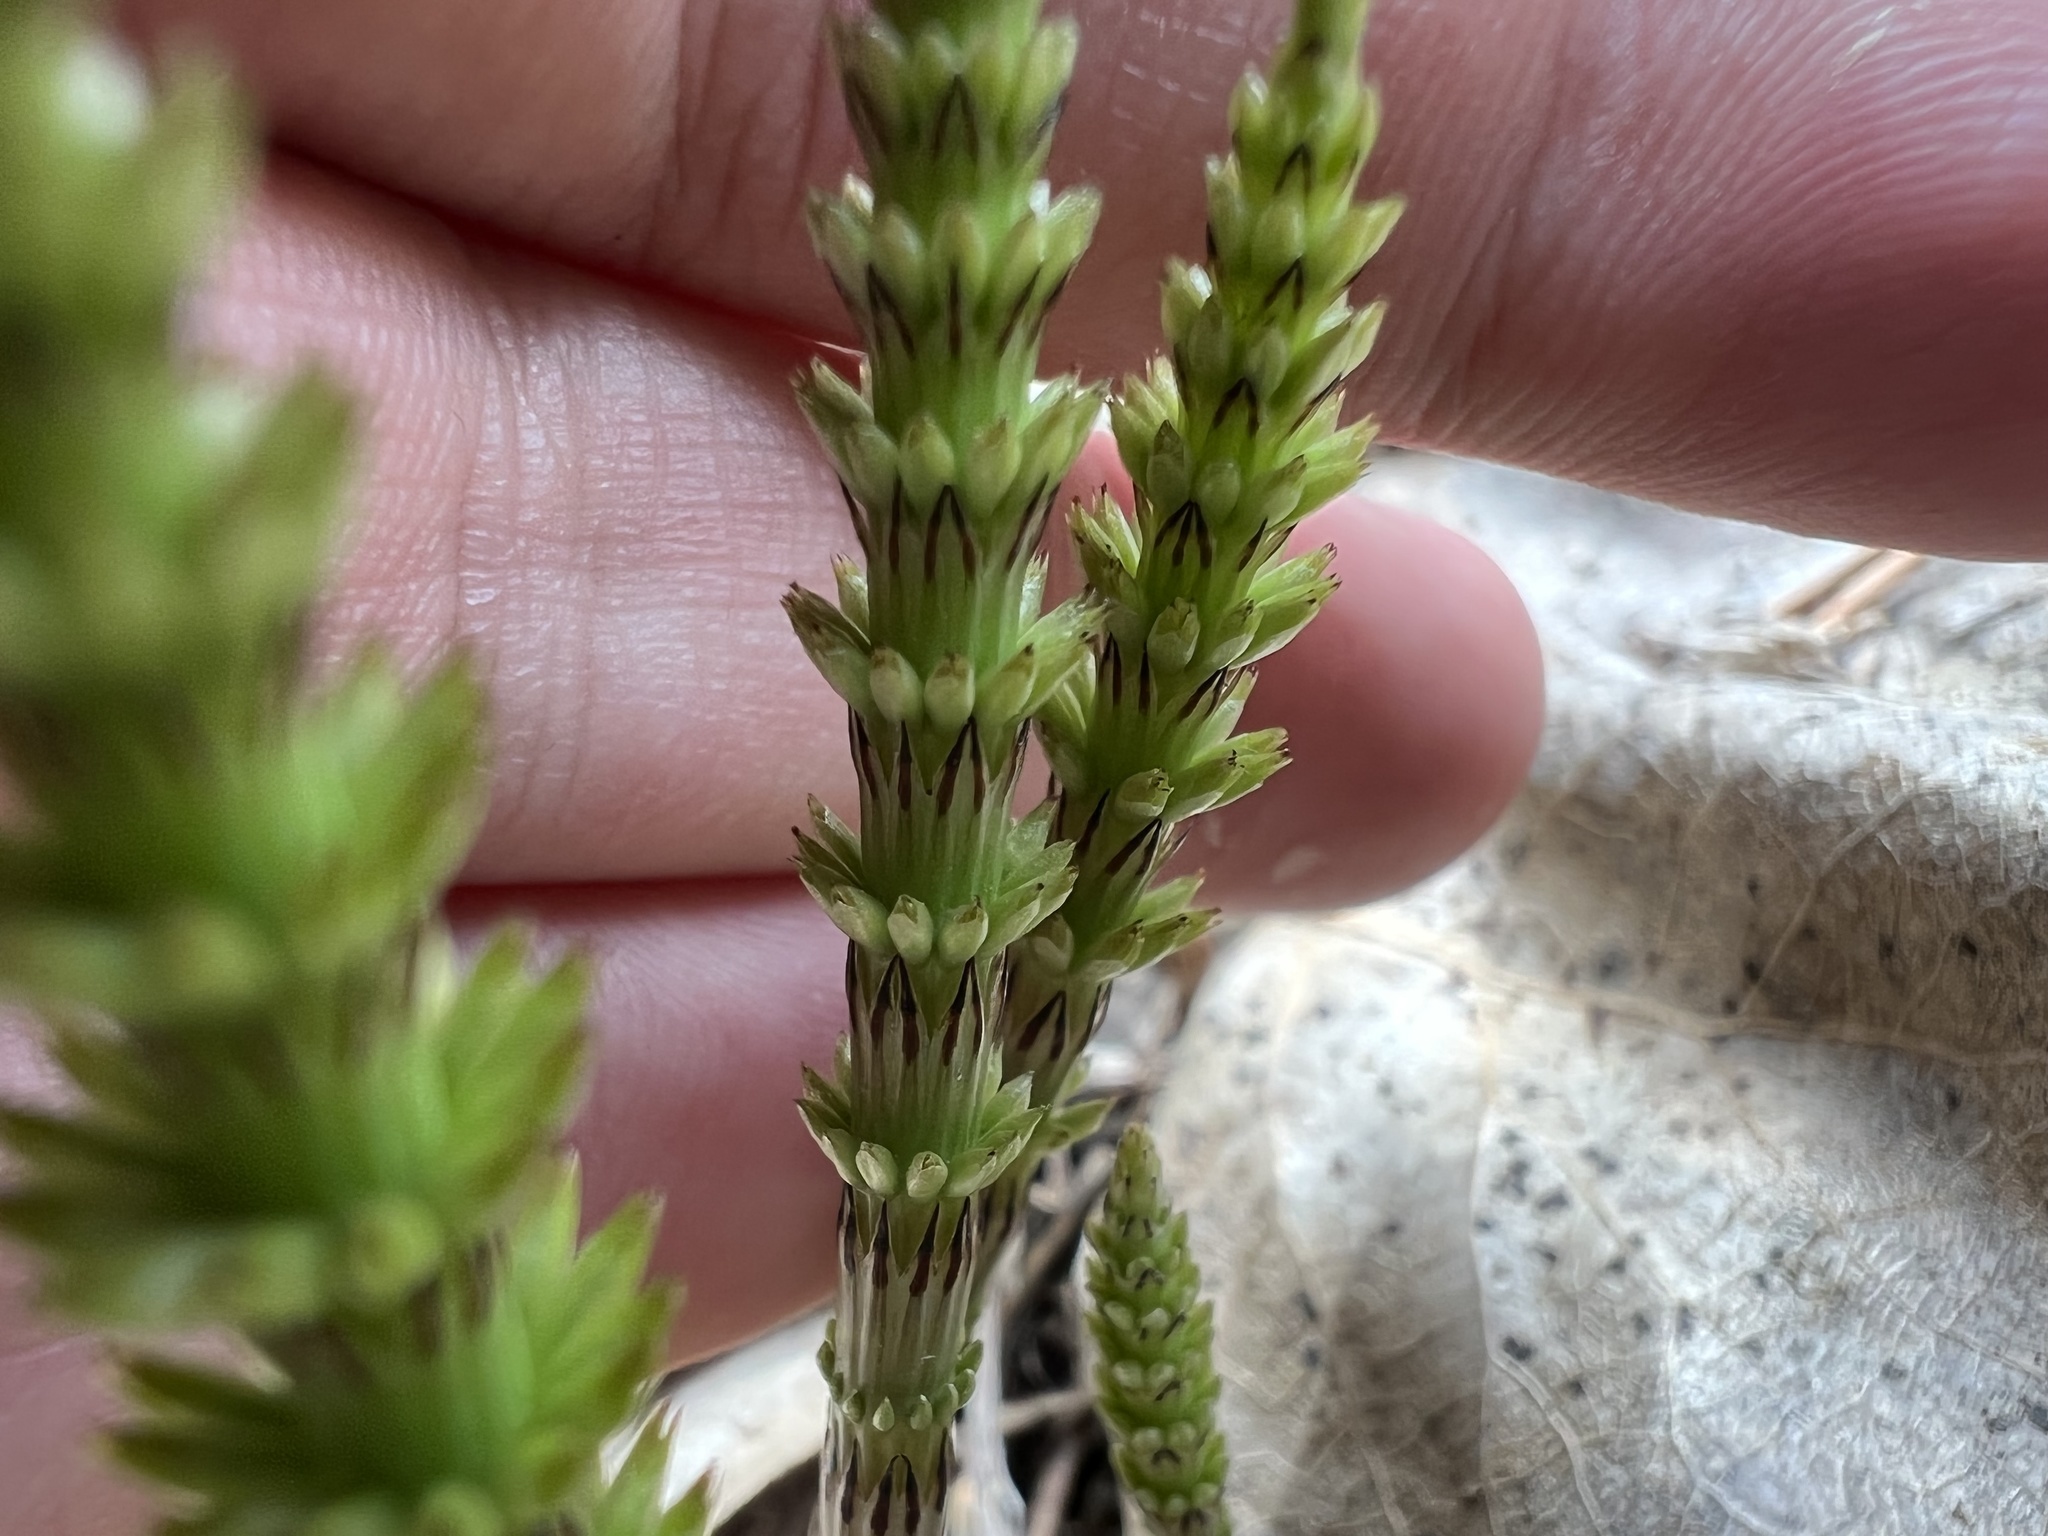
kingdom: Plantae
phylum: Tracheophyta
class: Polypodiopsida
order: Equisetales
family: Equisetaceae
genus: Equisetum
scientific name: Equisetum arvense
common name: Field horsetail
